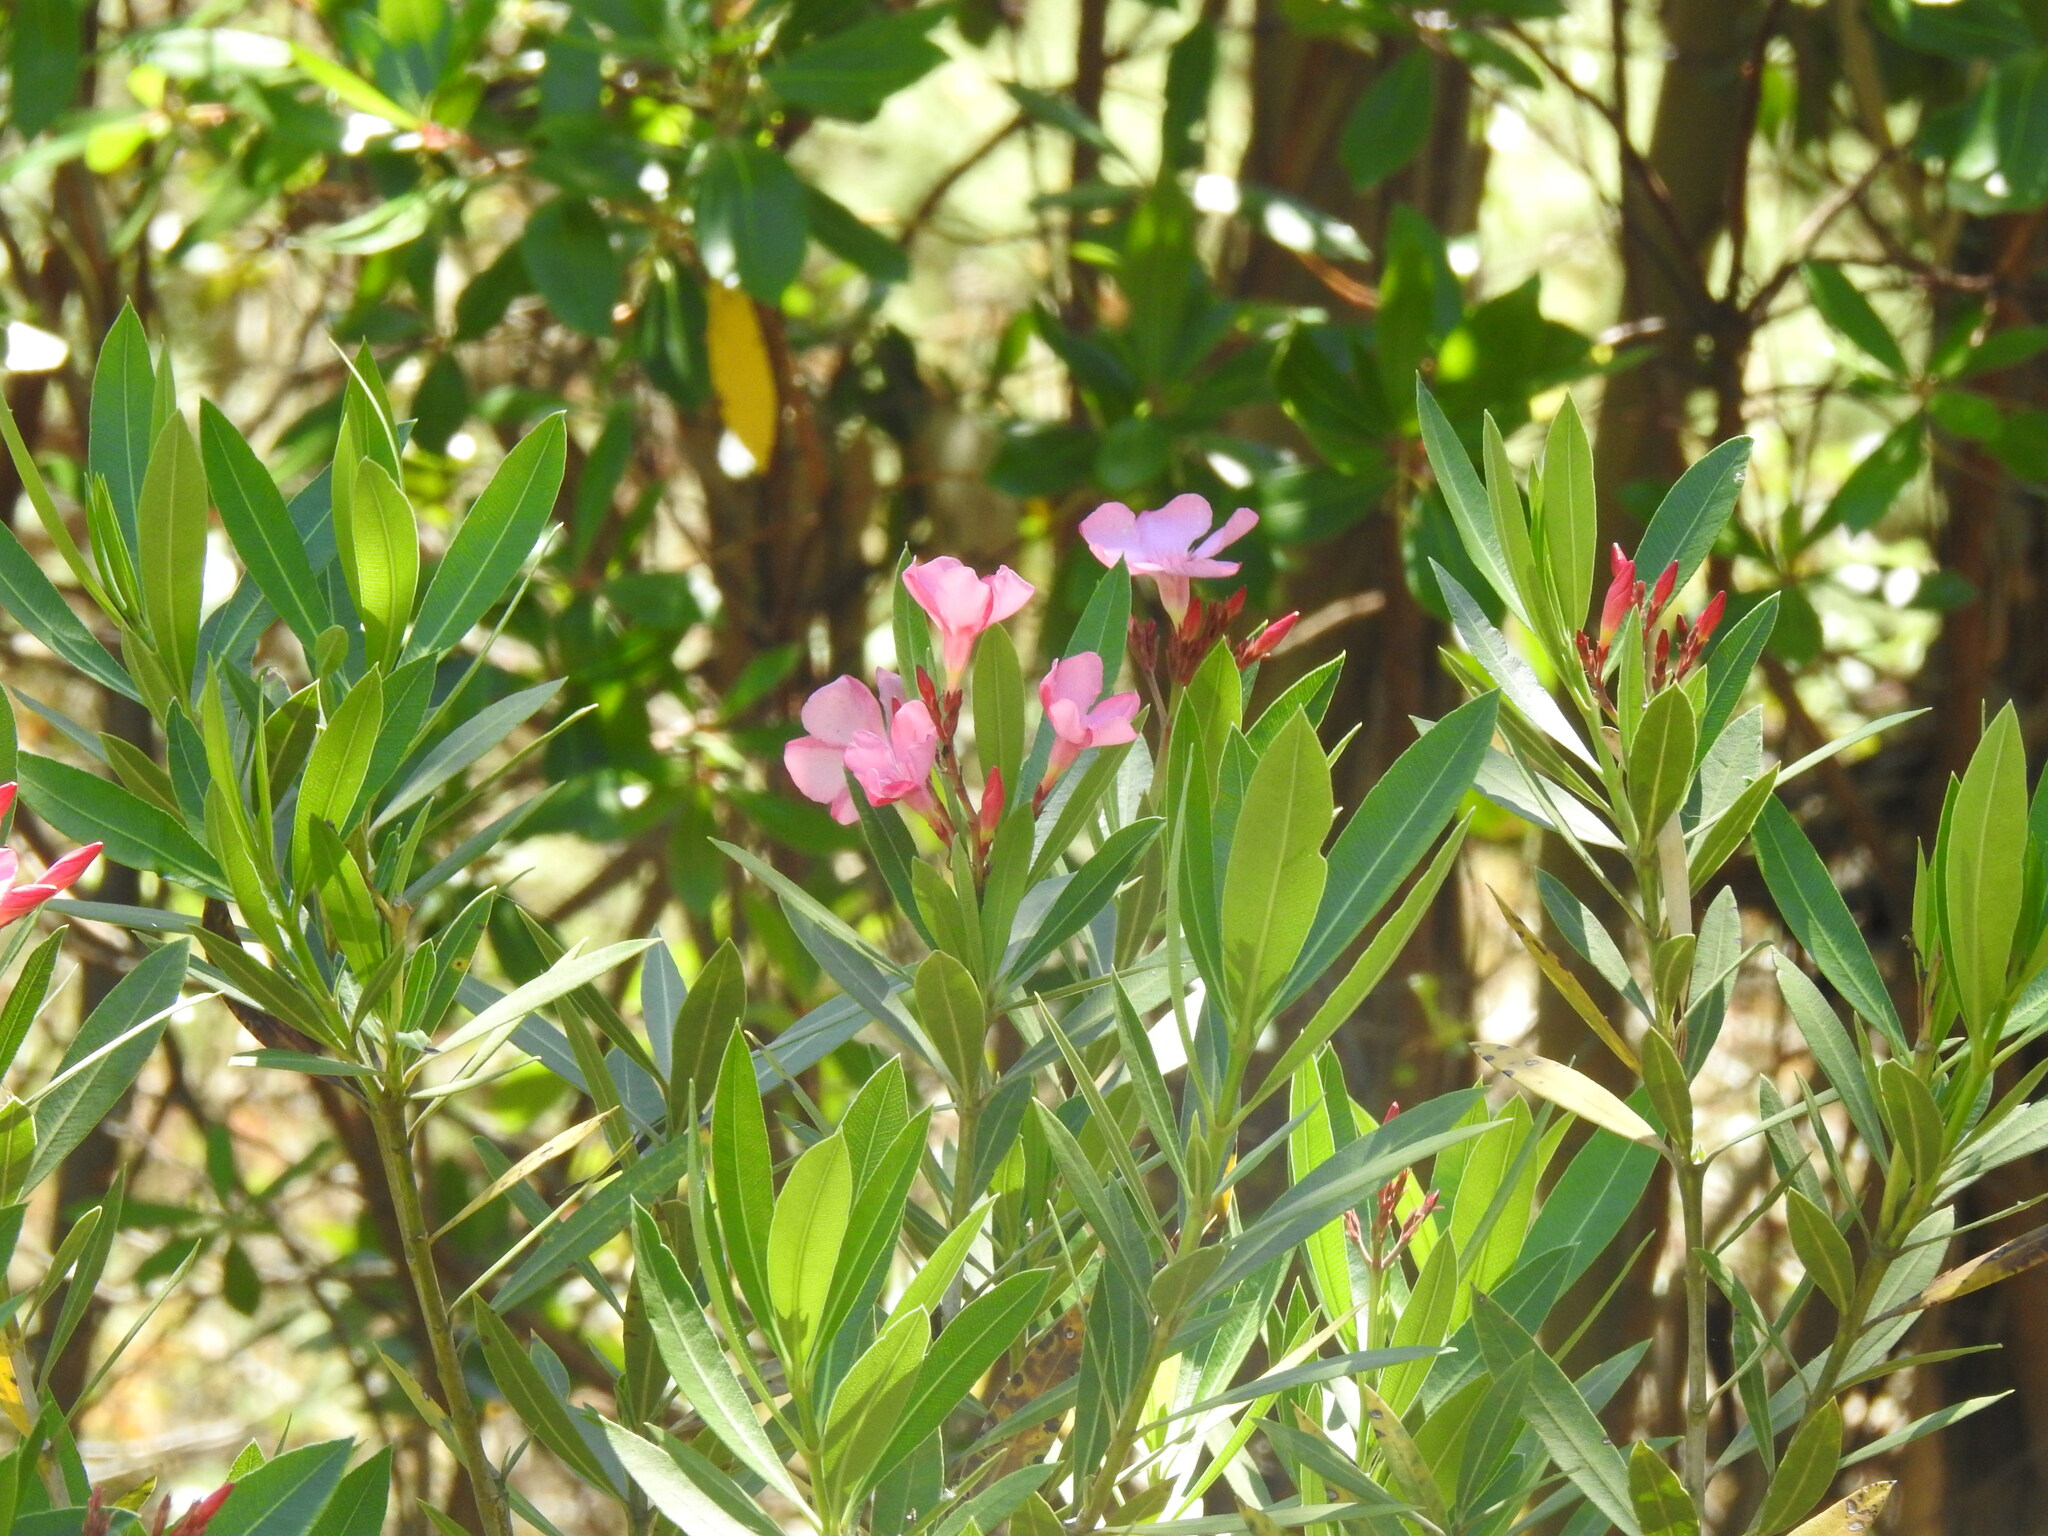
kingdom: Plantae
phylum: Tracheophyta
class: Magnoliopsida
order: Gentianales
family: Apocynaceae
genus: Nerium
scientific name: Nerium oleander
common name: Oleander
